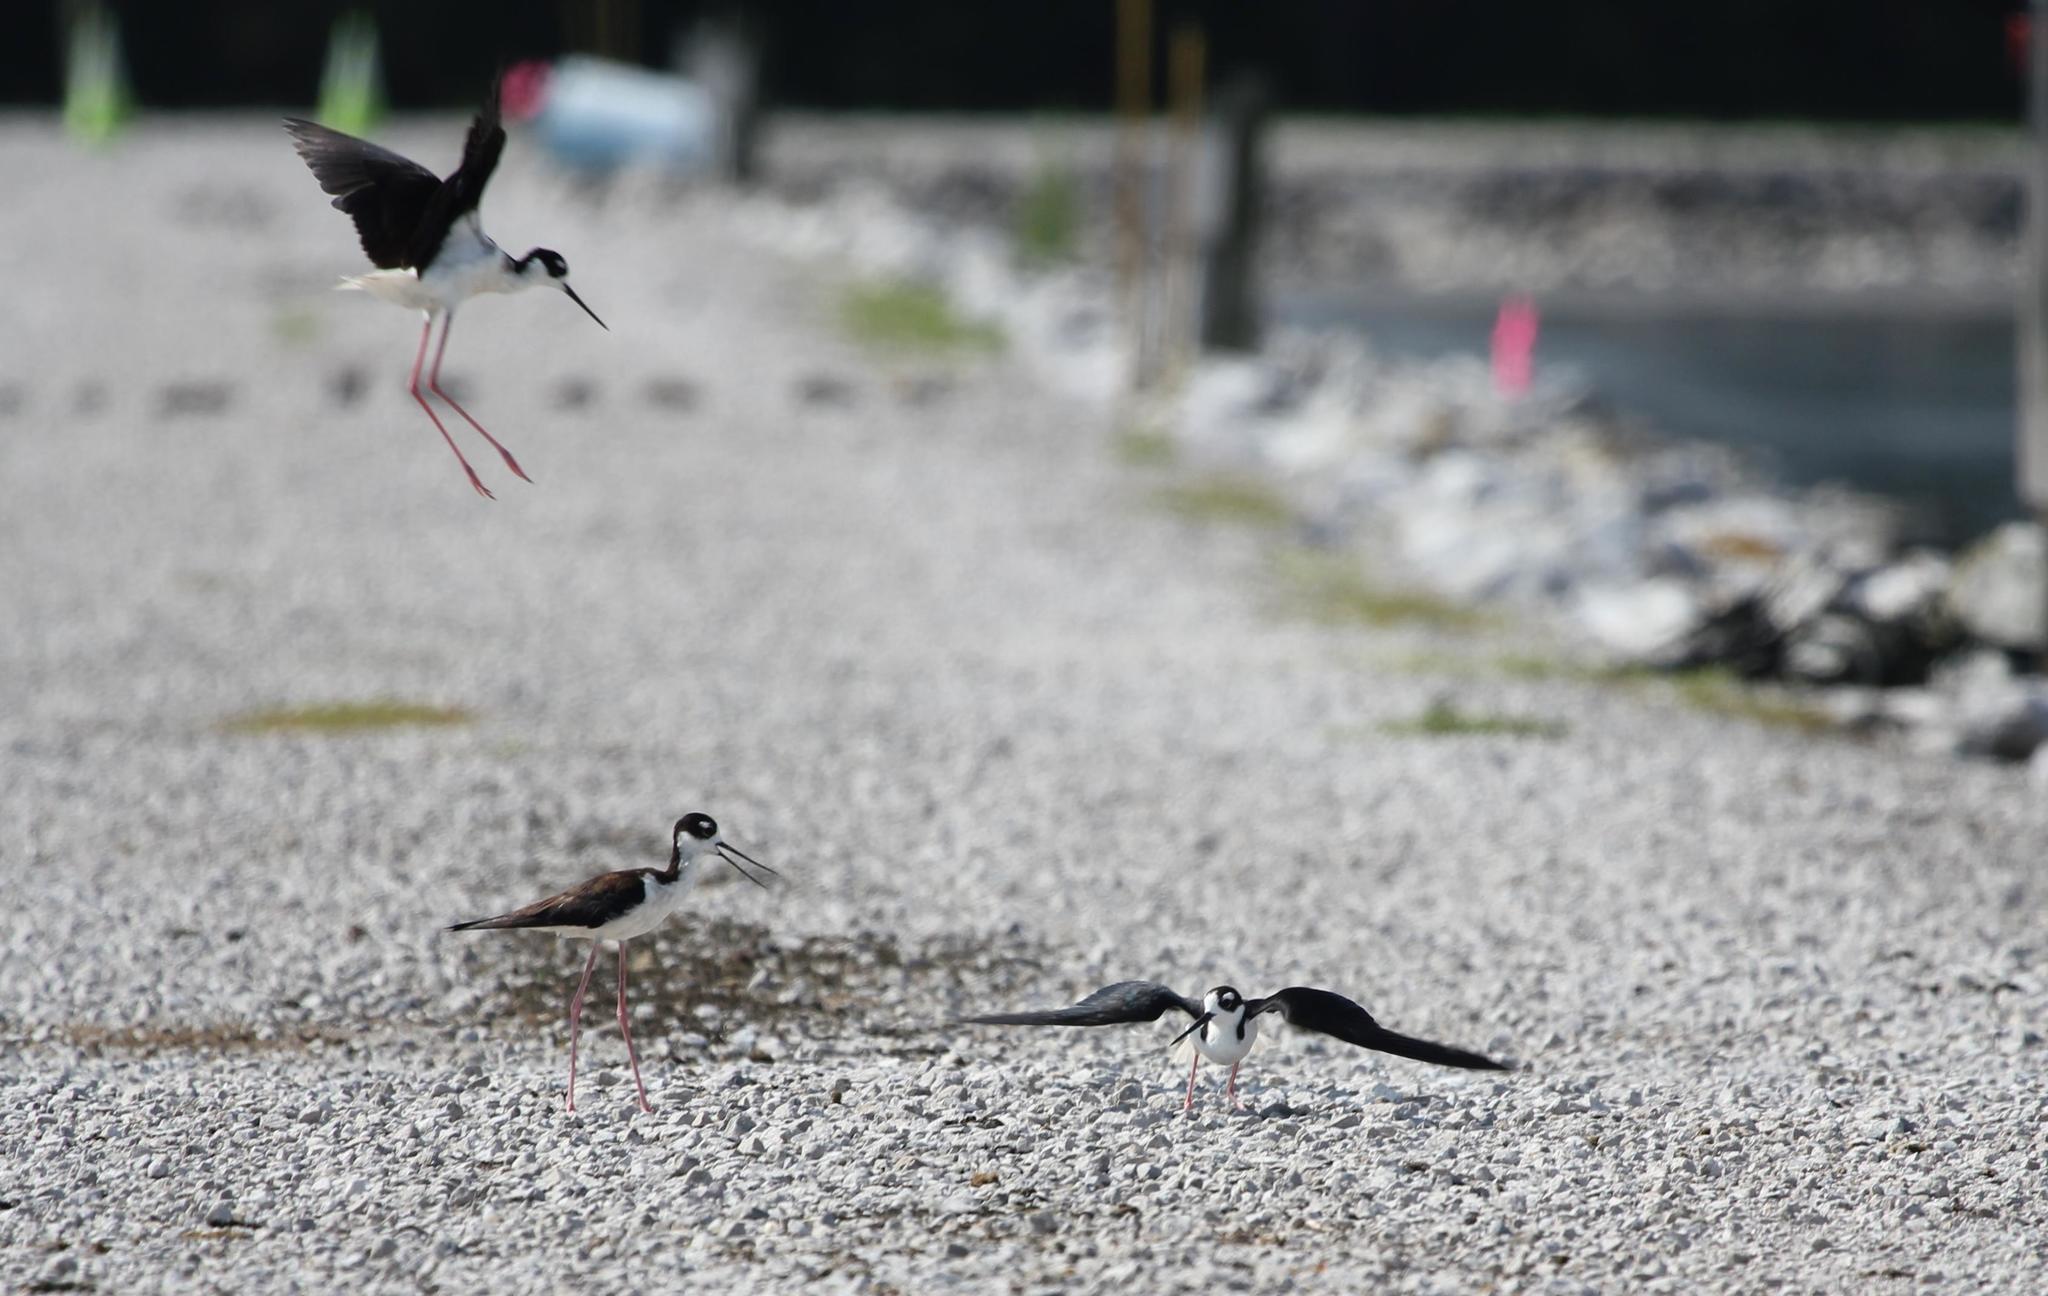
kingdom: Animalia
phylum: Chordata
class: Aves
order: Charadriiformes
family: Recurvirostridae
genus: Himantopus
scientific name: Himantopus mexicanus
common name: Black-necked stilt
